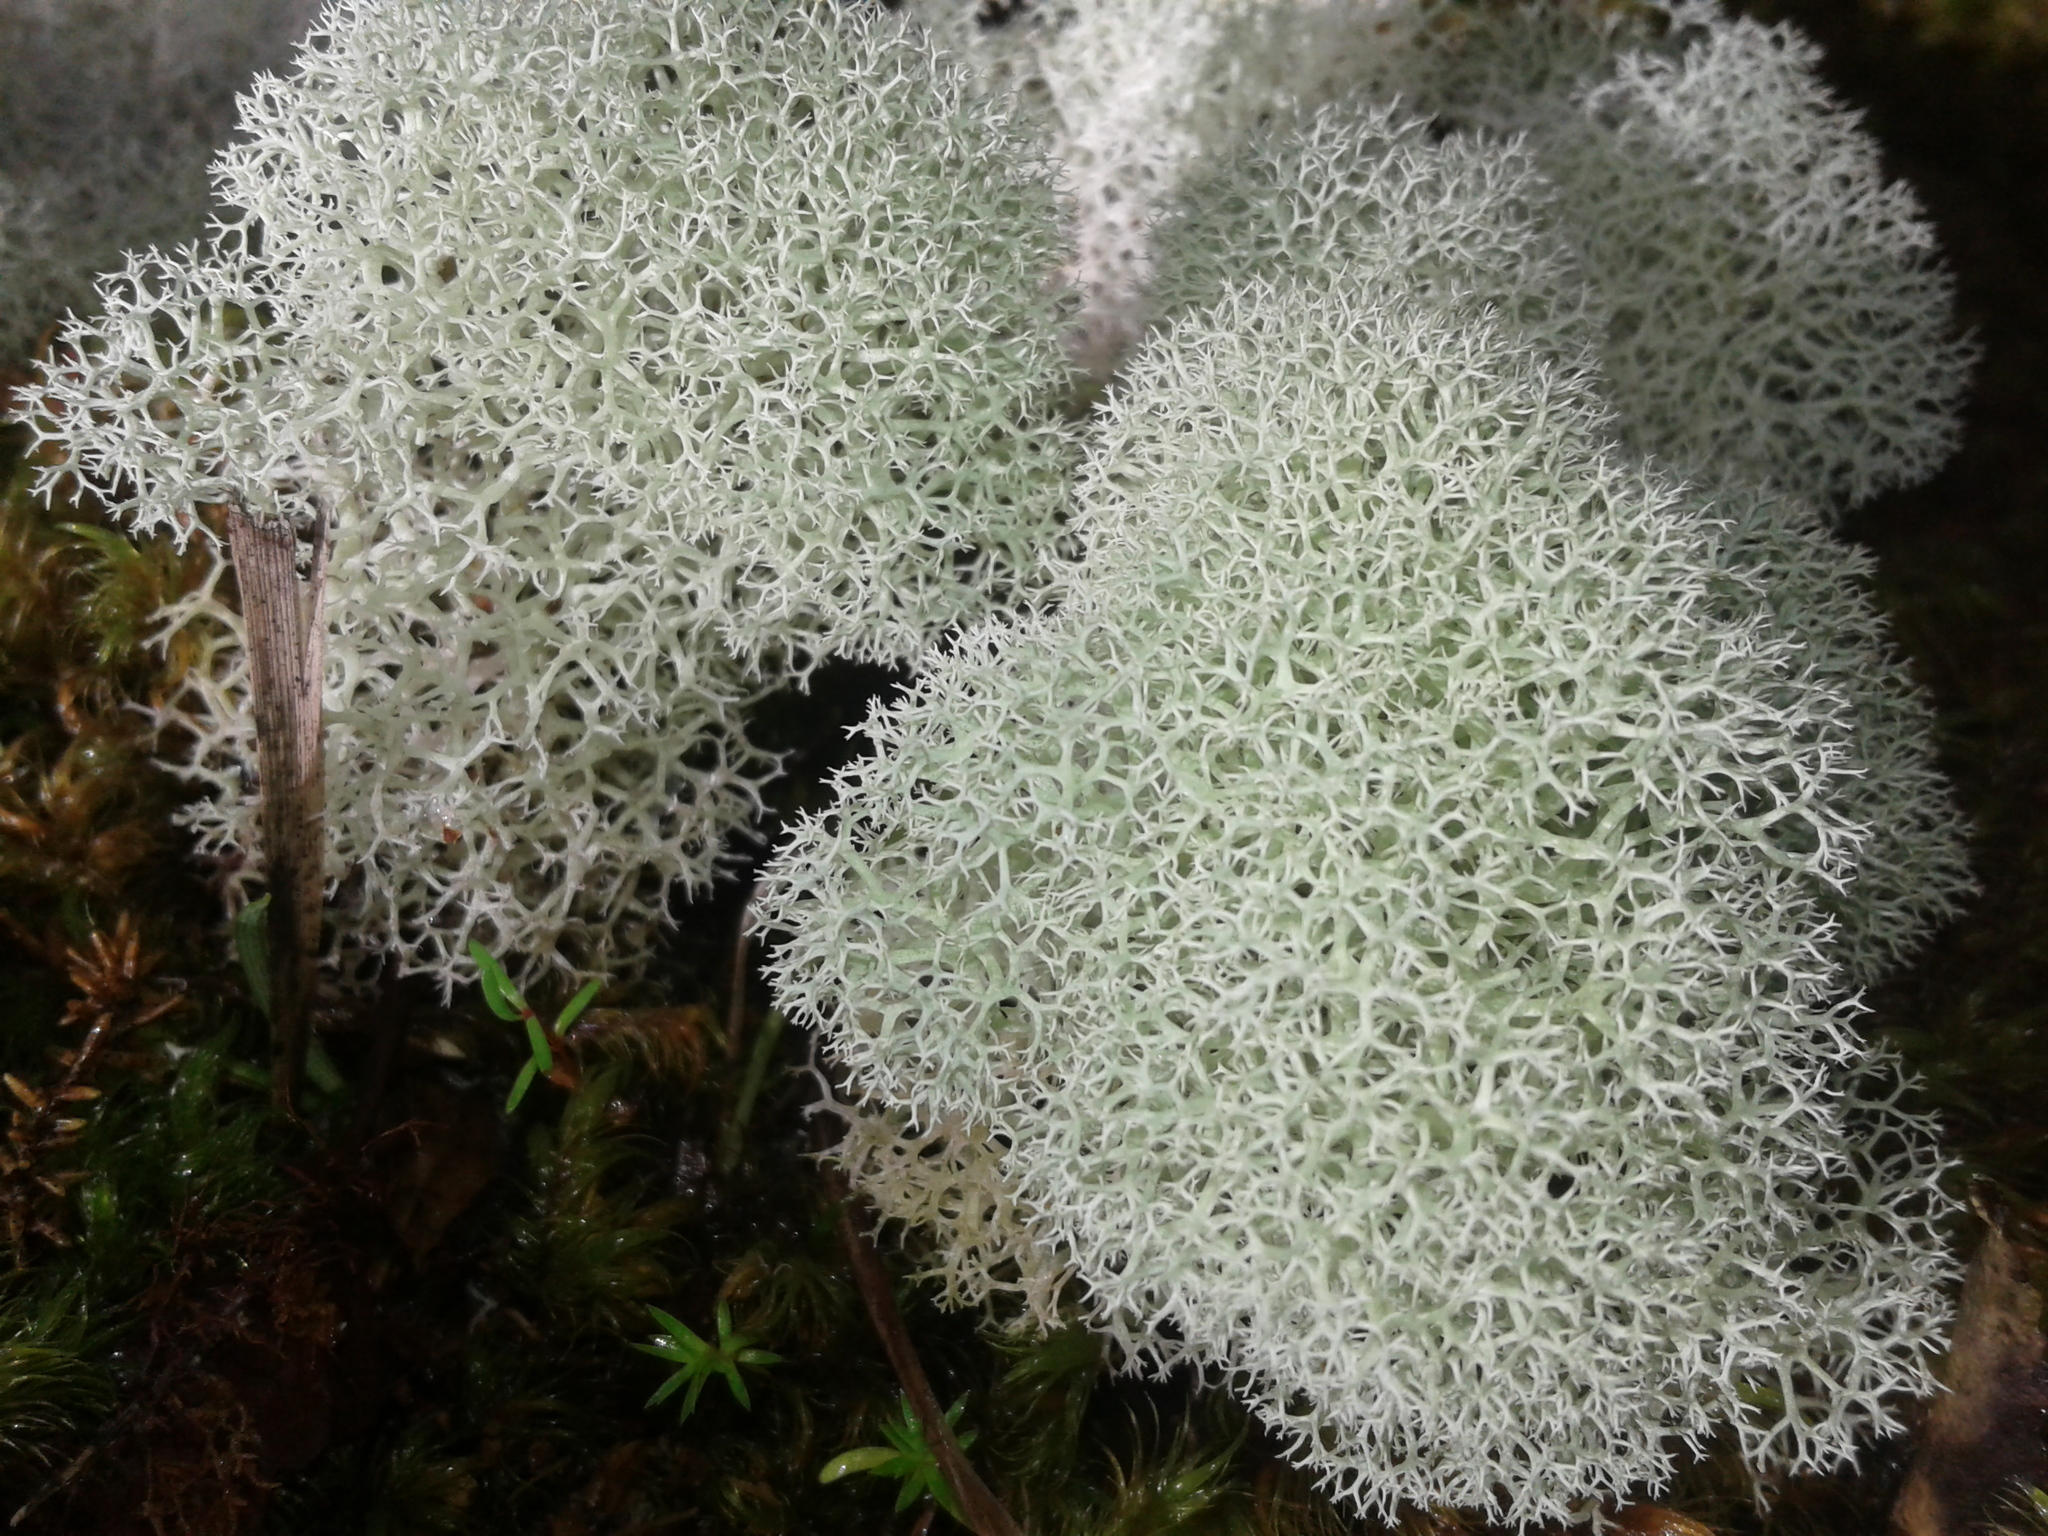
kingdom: Fungi
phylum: Ascomycota
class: Lecanoromycetes
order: Lecanorales
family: Cladoniaceae
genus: Cladonia
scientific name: Cladonia confusa
